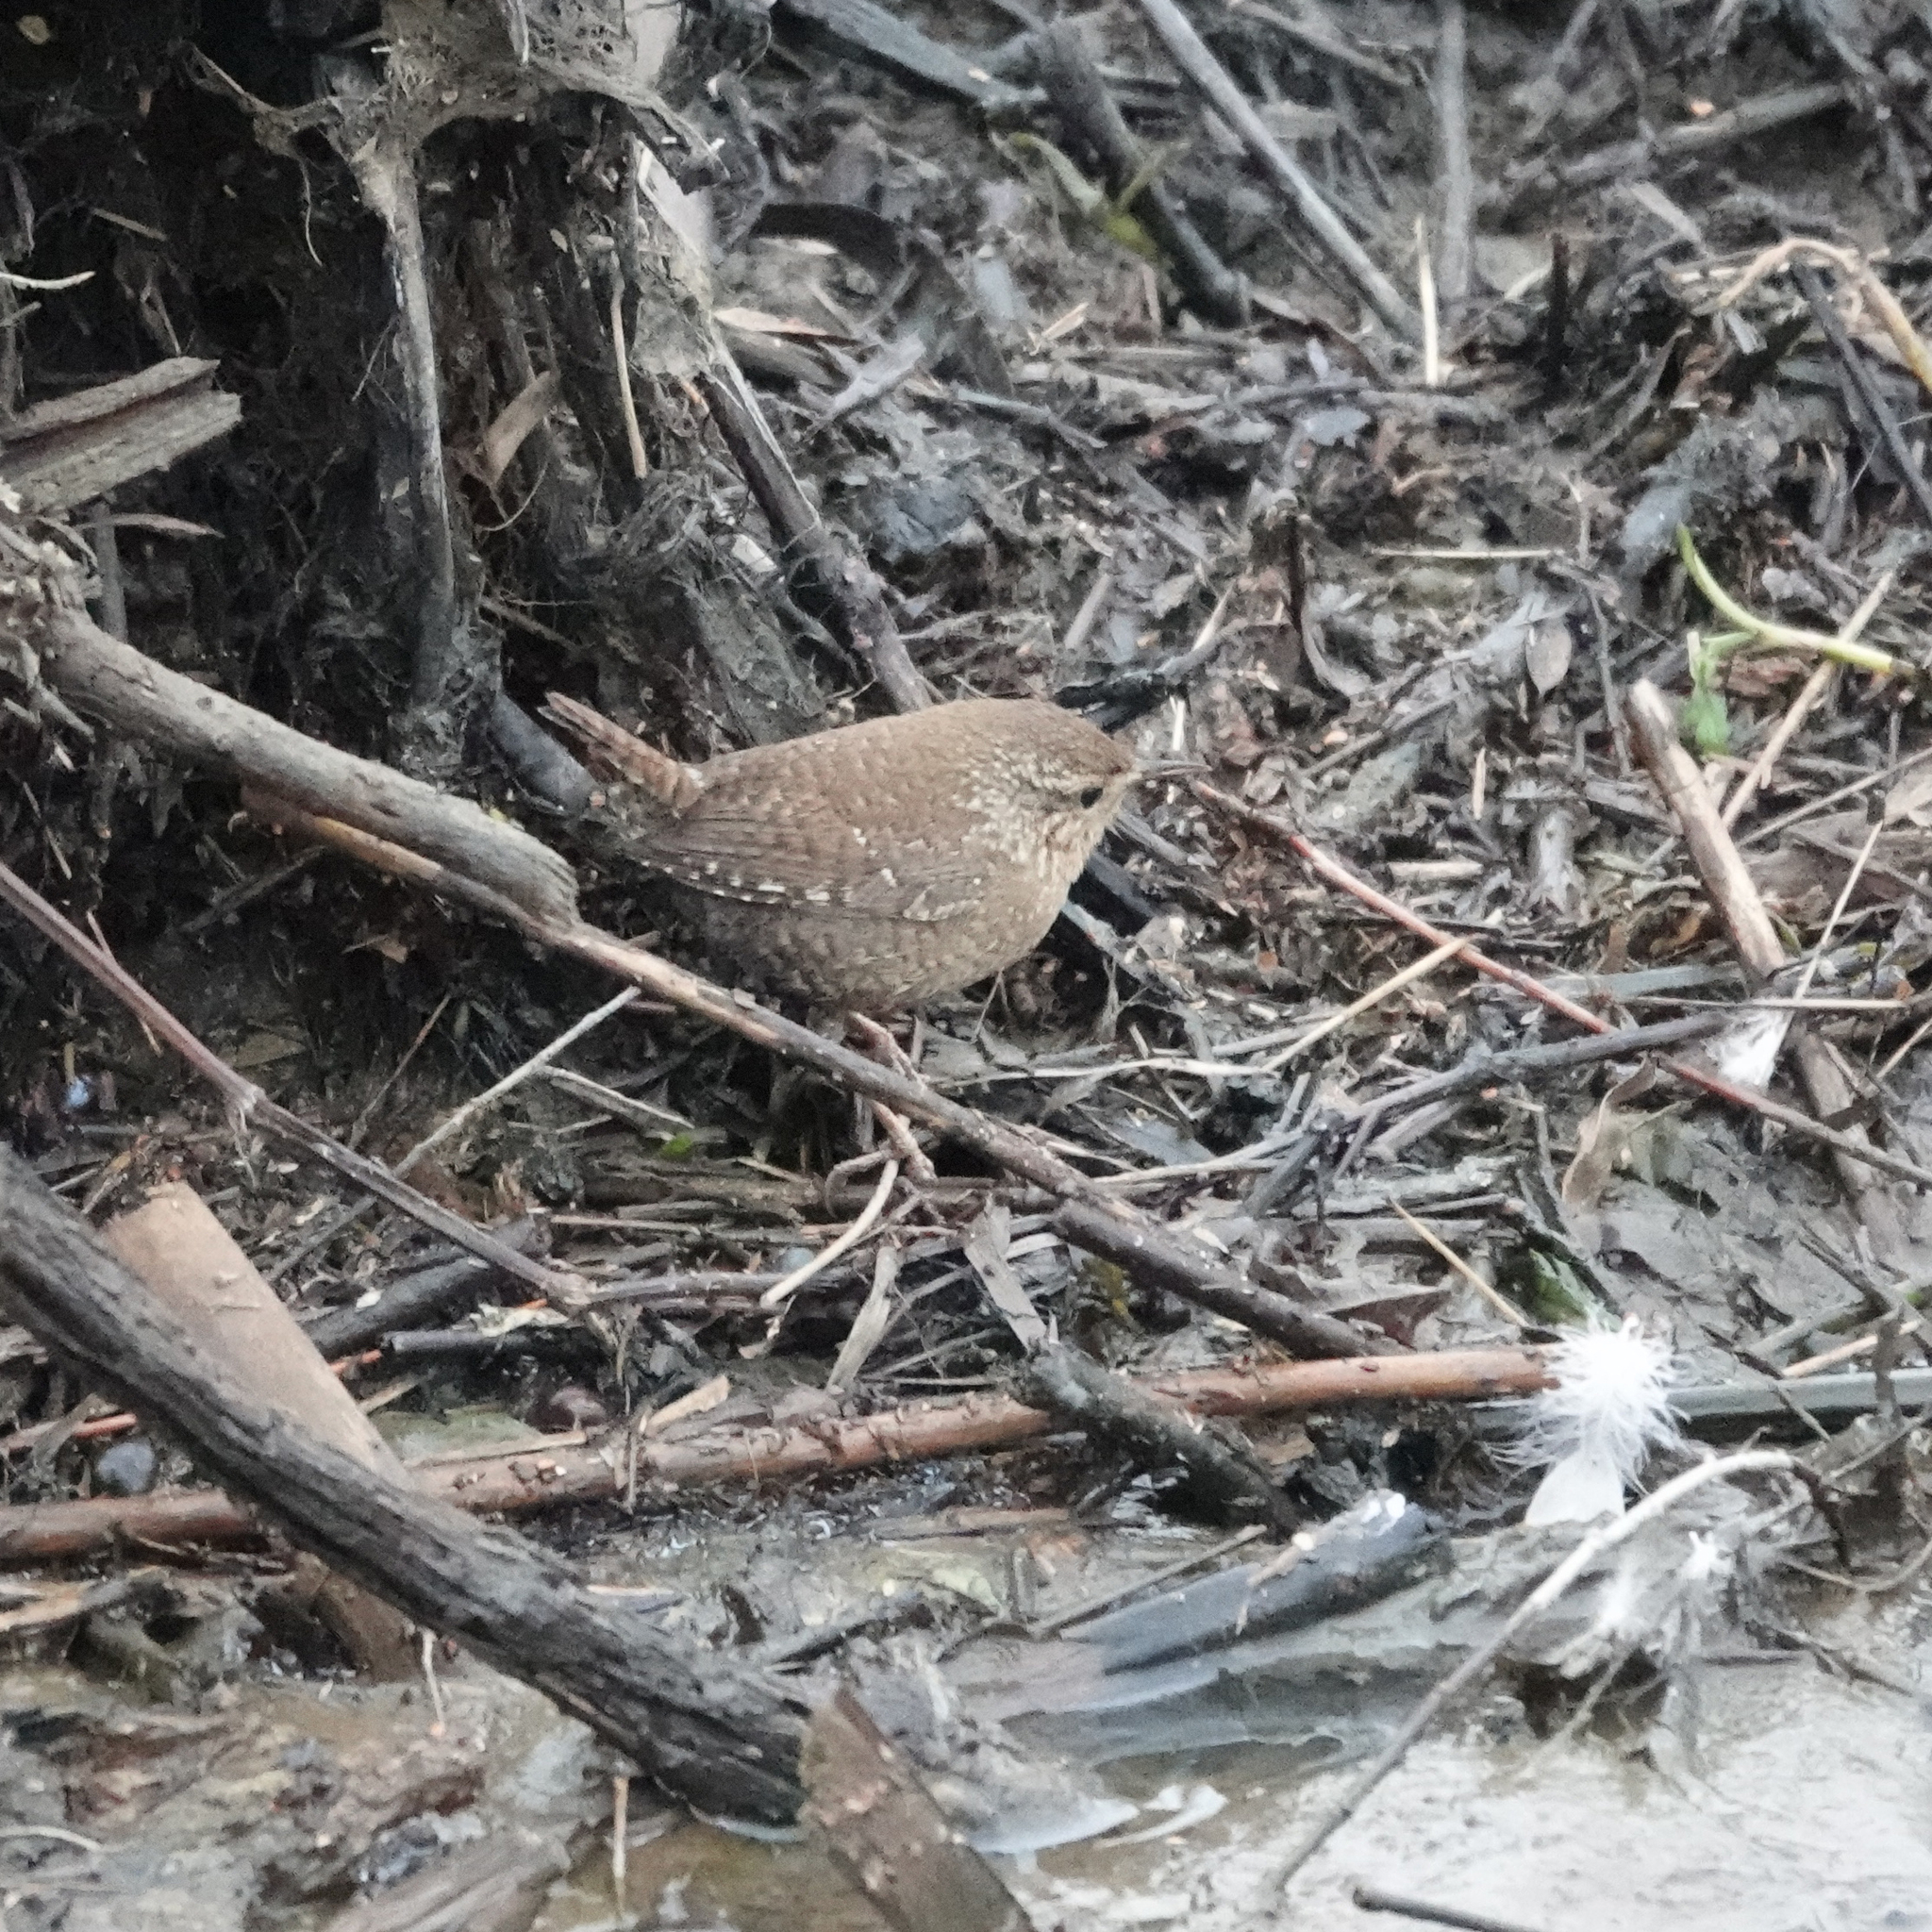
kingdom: Animalia
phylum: Chordata
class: Aves
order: Passeriformes
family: Troglodytidae
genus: Troglodytes
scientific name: Troglodytes hiemalis
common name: Winter wren
